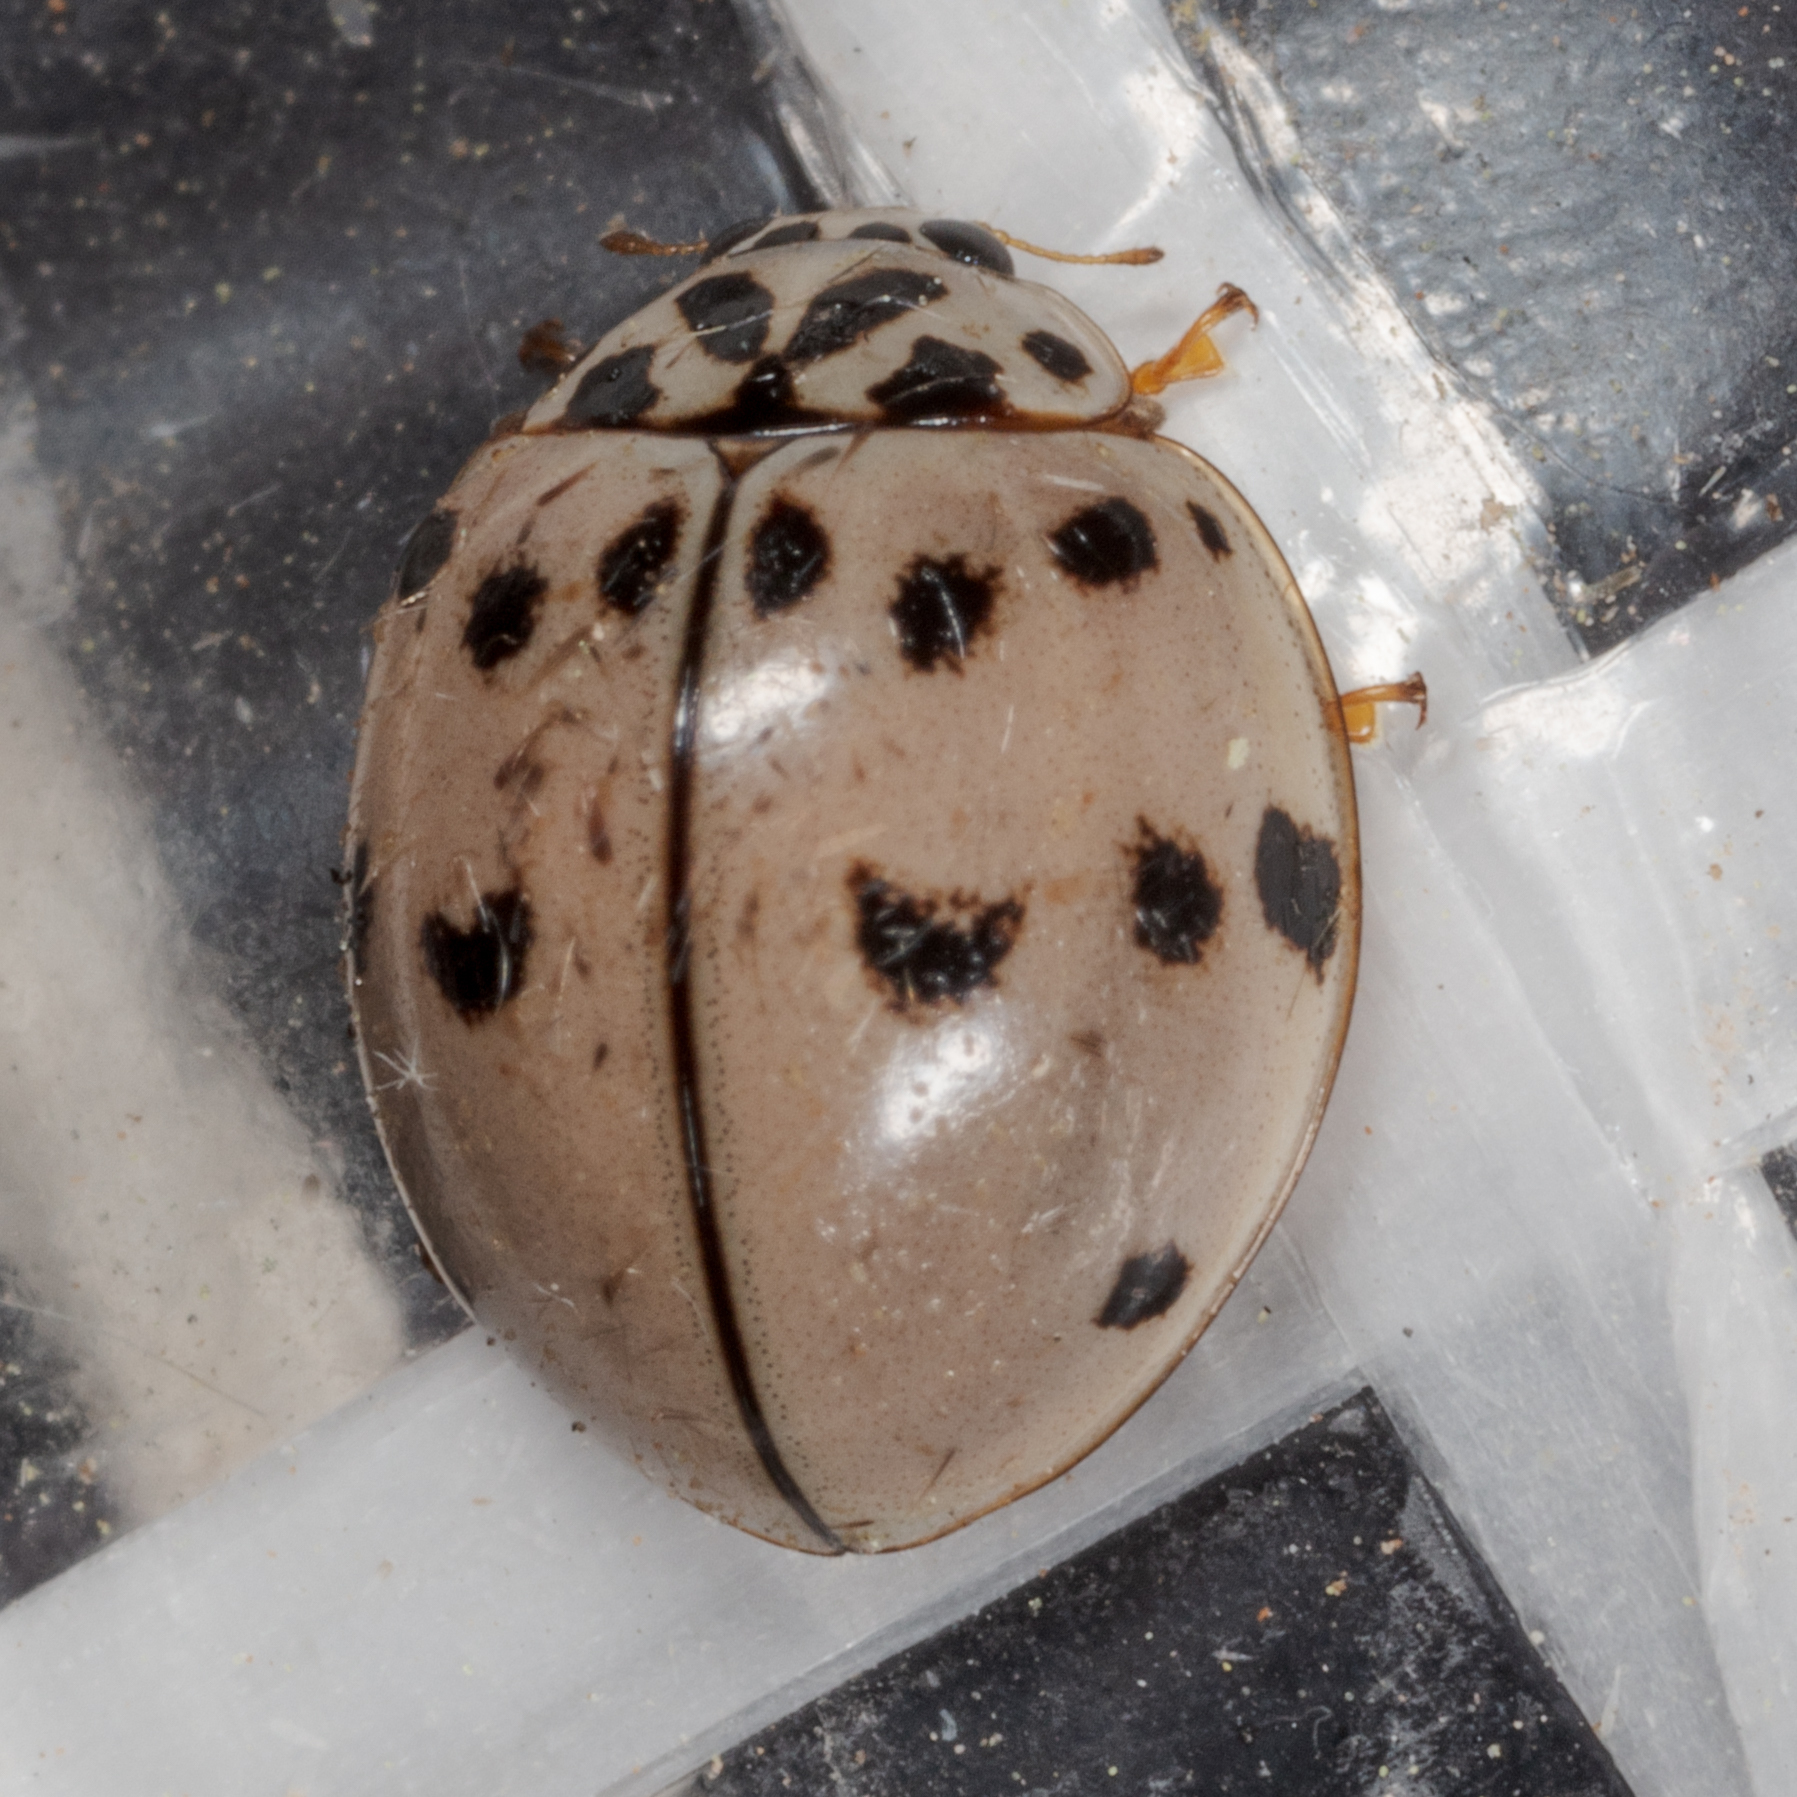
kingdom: Animalia
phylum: Arthropoda
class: Insecta
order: Coleoptera
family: Coccinellidae
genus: Olla
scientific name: Olla v-nigrum
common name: Ashy gray lady beetle
